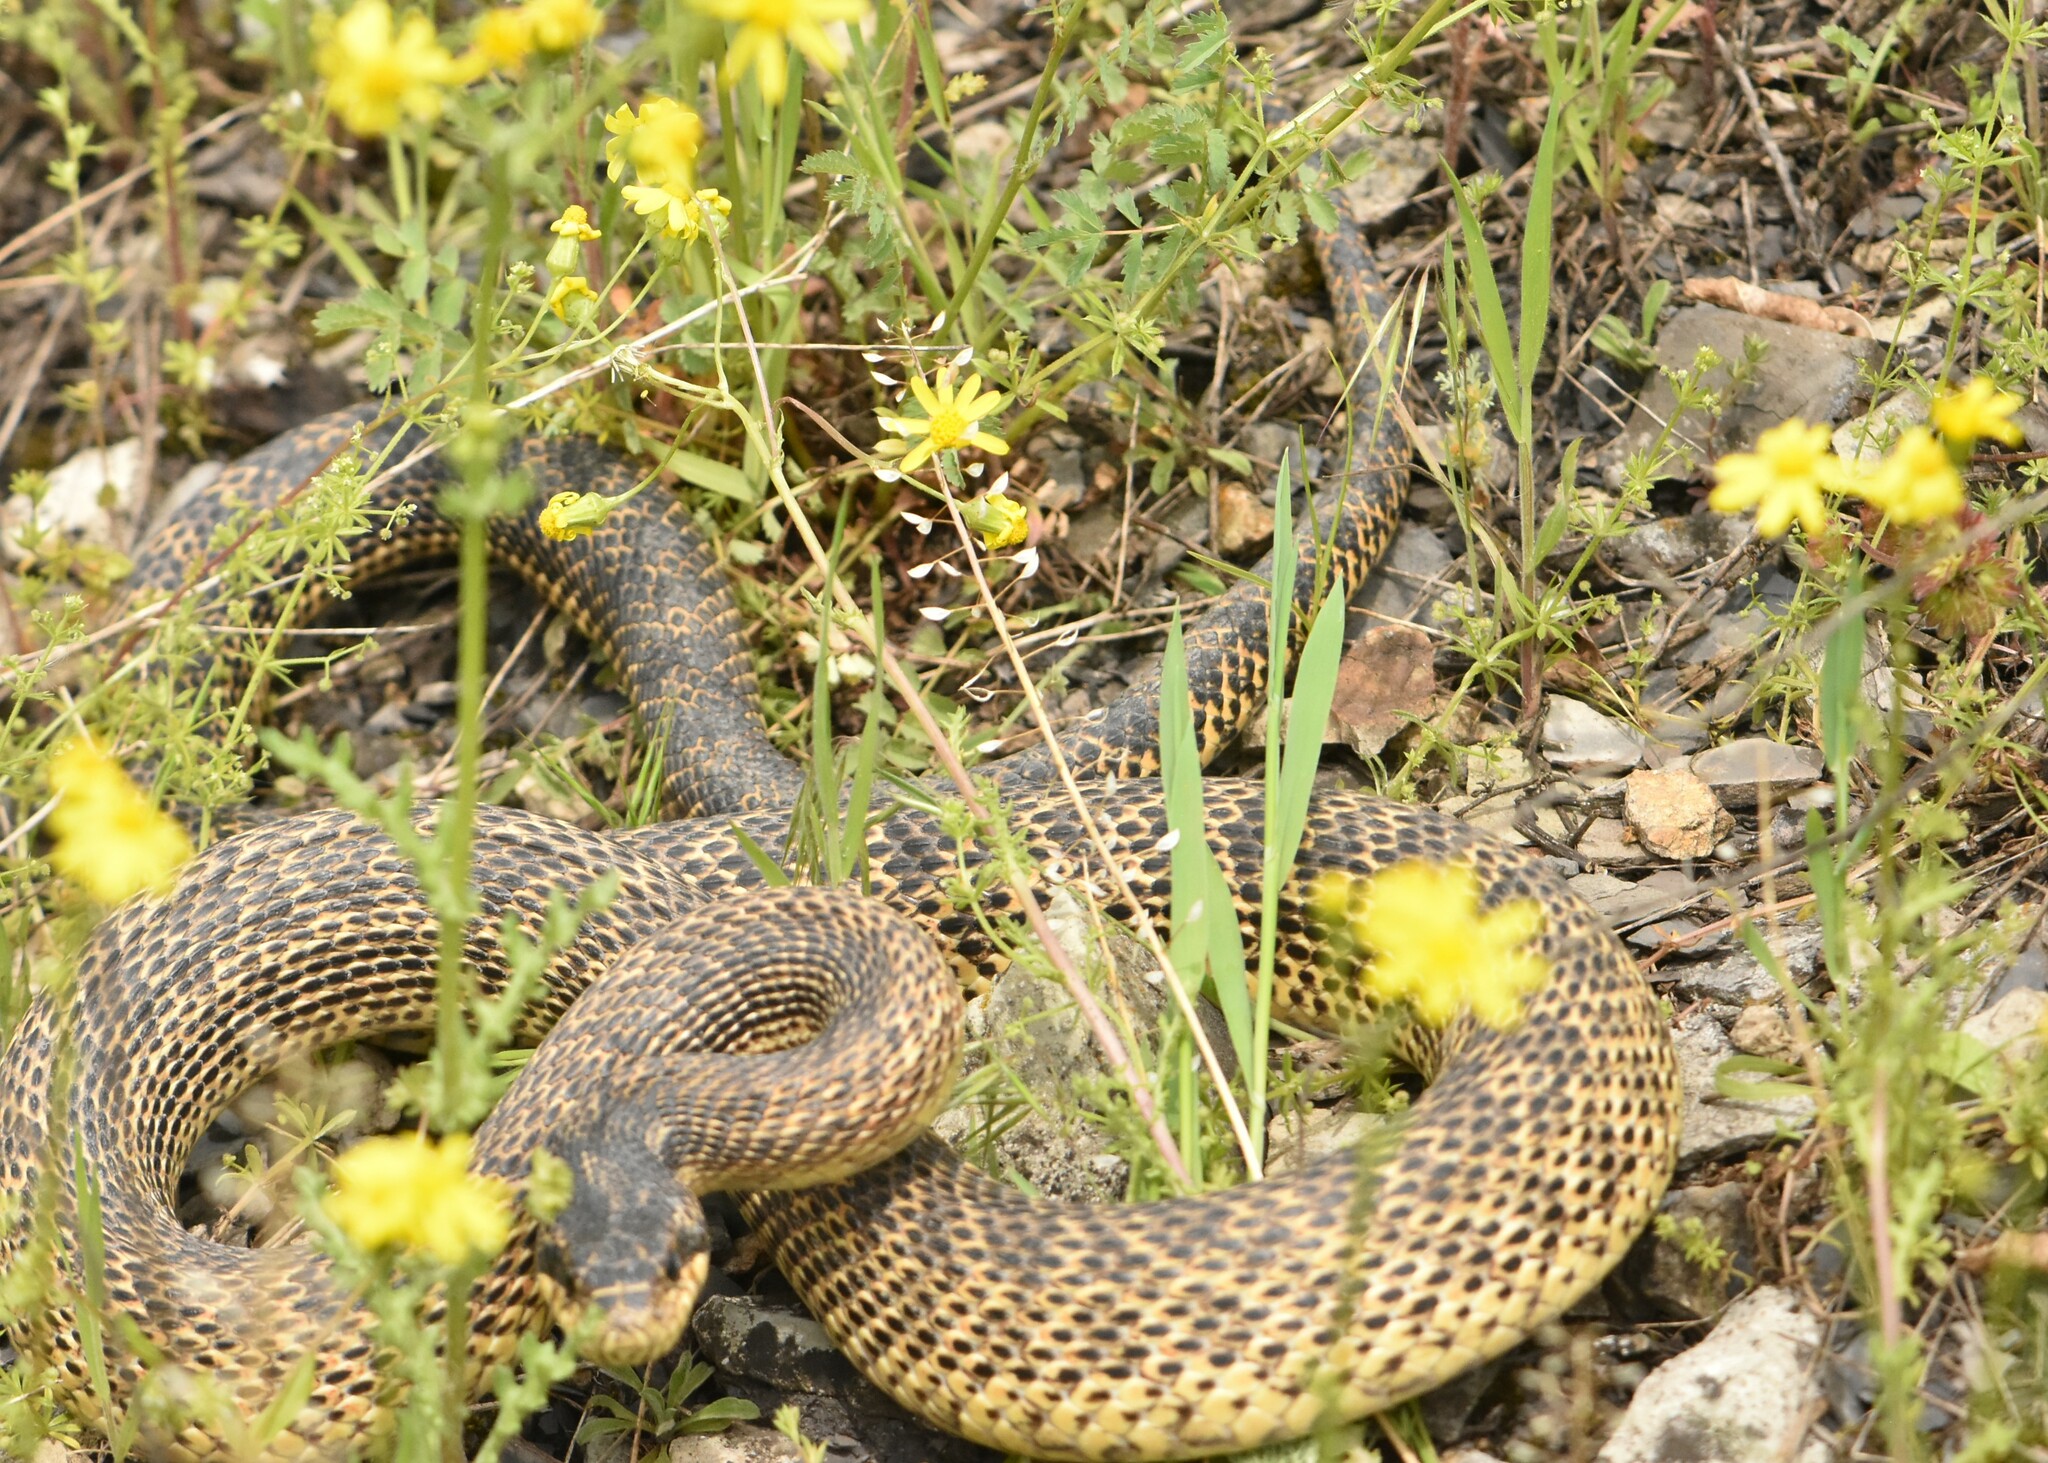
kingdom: Animalia
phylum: Chordata
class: Squamata
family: Colubridae
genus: Elaphe
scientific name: Elaphe sauromates
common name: Eastern four-lined ratsnake
